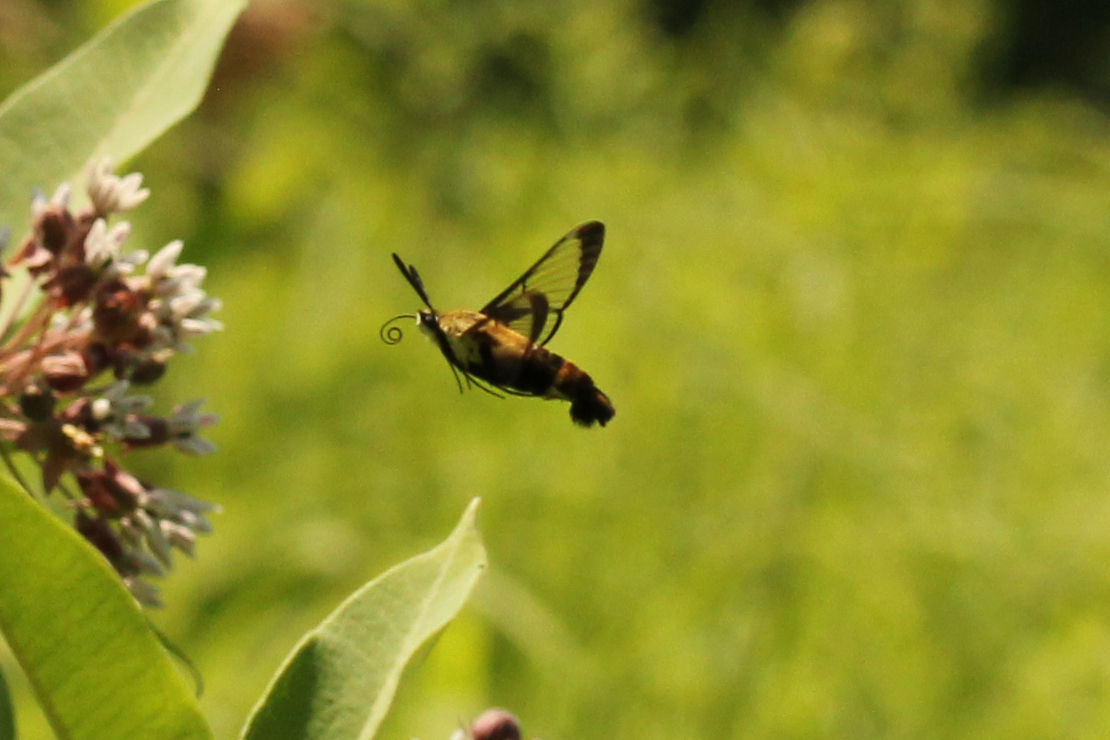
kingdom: Animalia
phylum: Arthropoda
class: Insecta
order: Lepidoptera
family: Sphingidae
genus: Hemaris
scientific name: Hemaris diffinis
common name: Bumblebee moth
